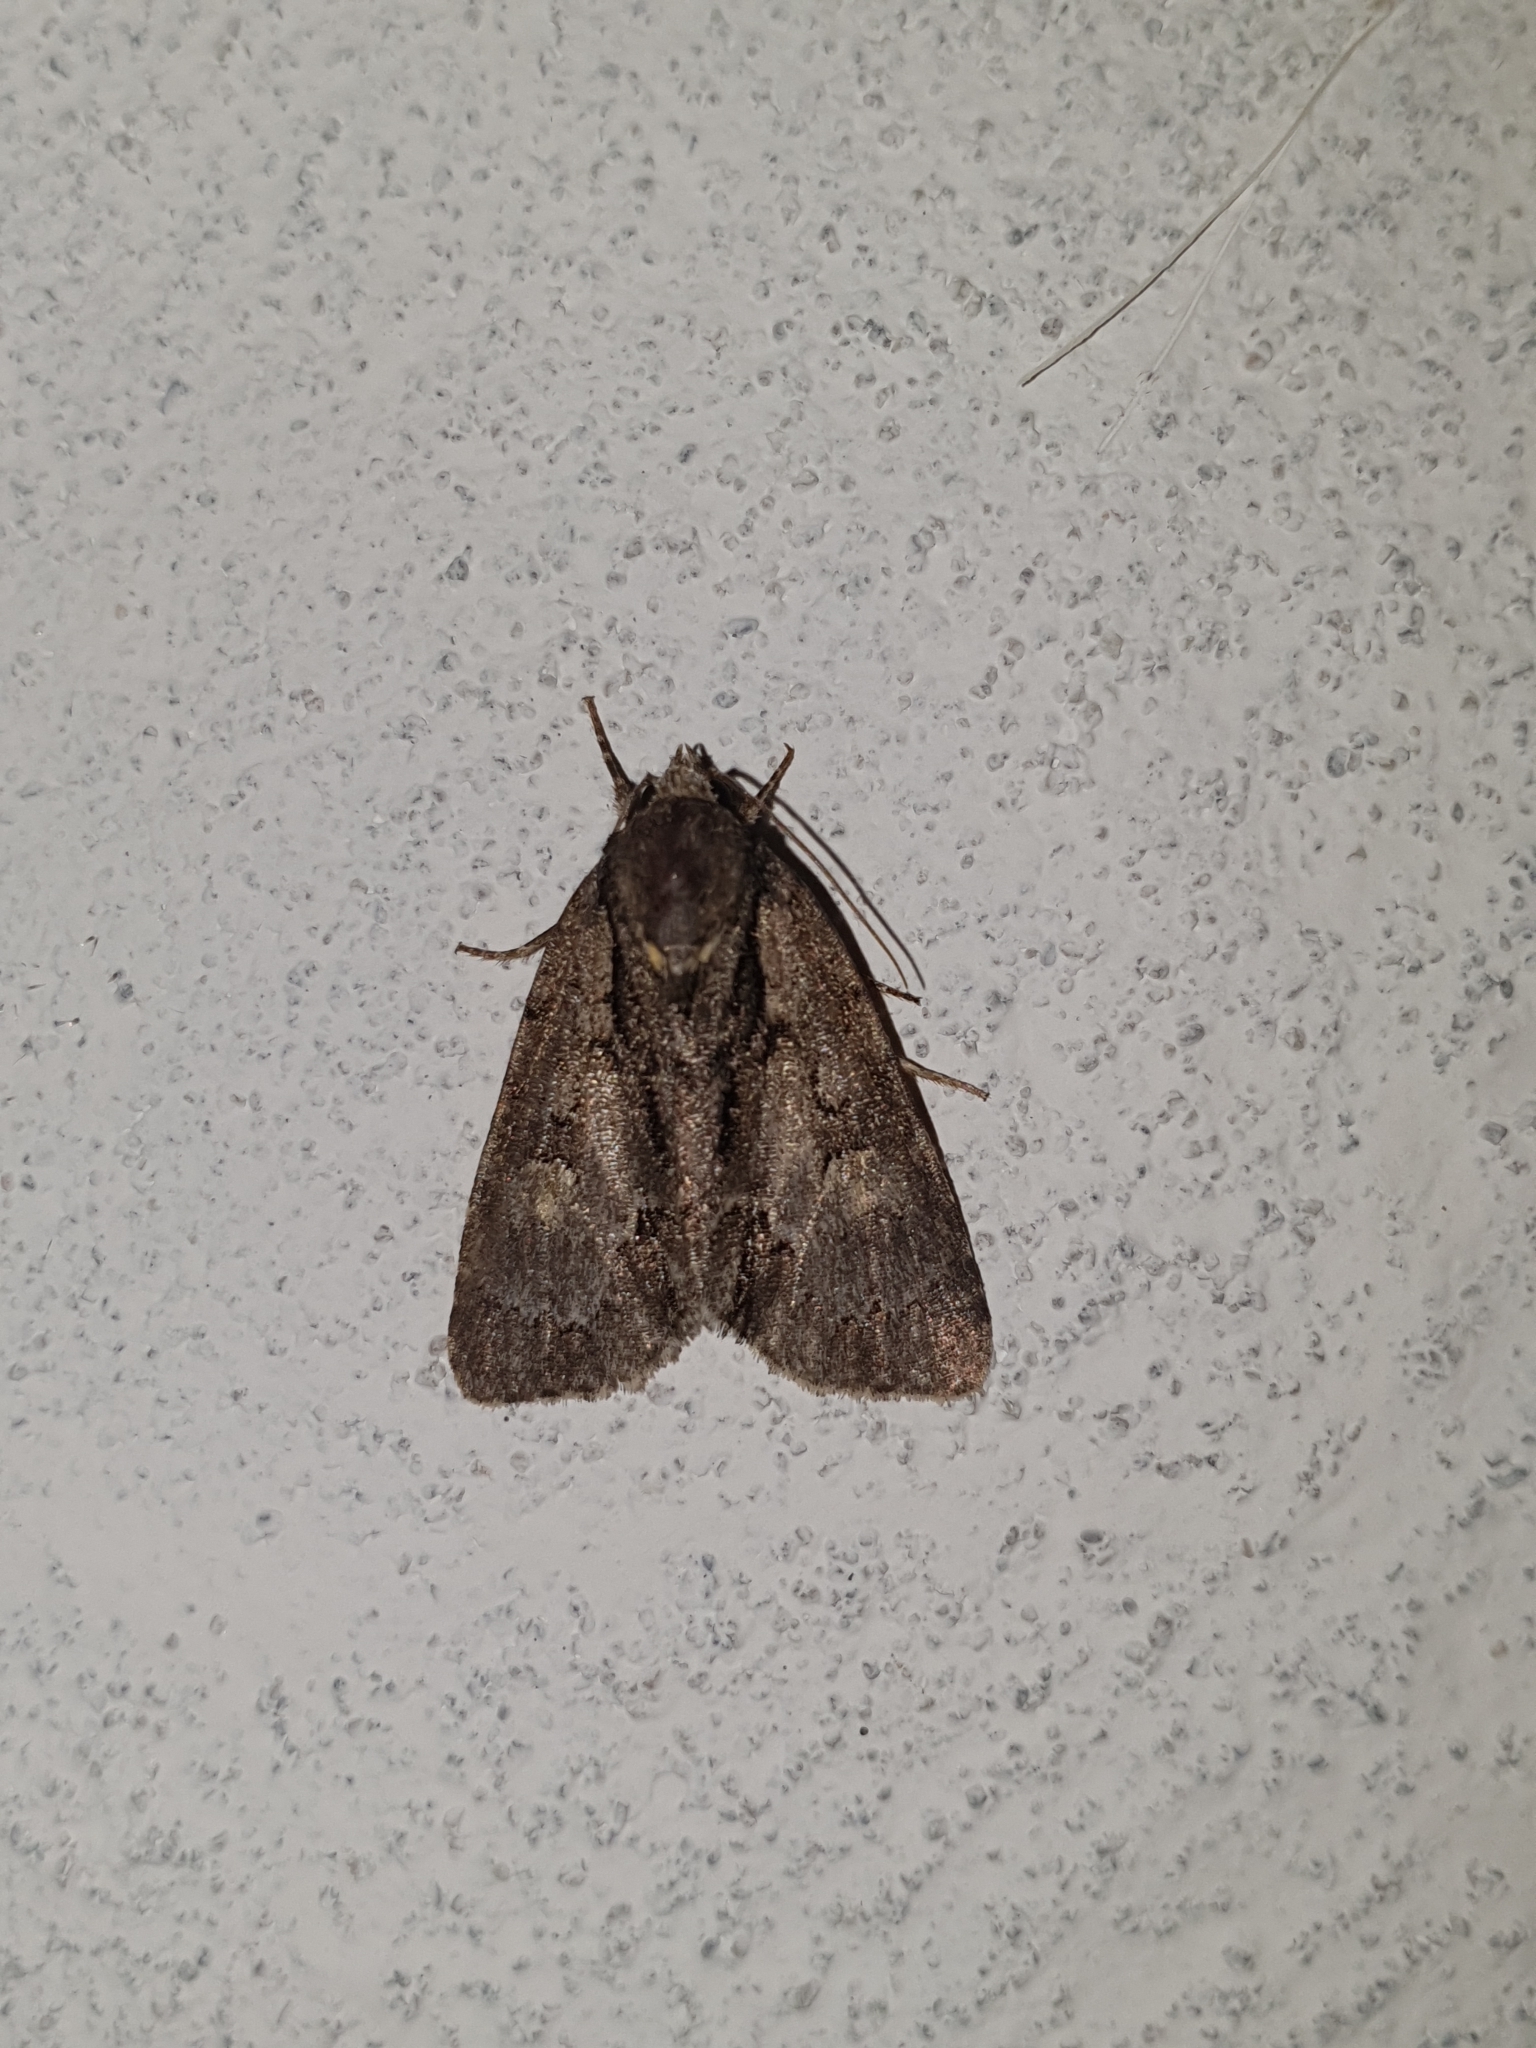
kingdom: Animalia
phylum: Arthropoda
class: Insecta
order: Lepidoptera
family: Noctuidae
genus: Acronicta
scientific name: Acronicta strigosa
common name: Marsh dagger
